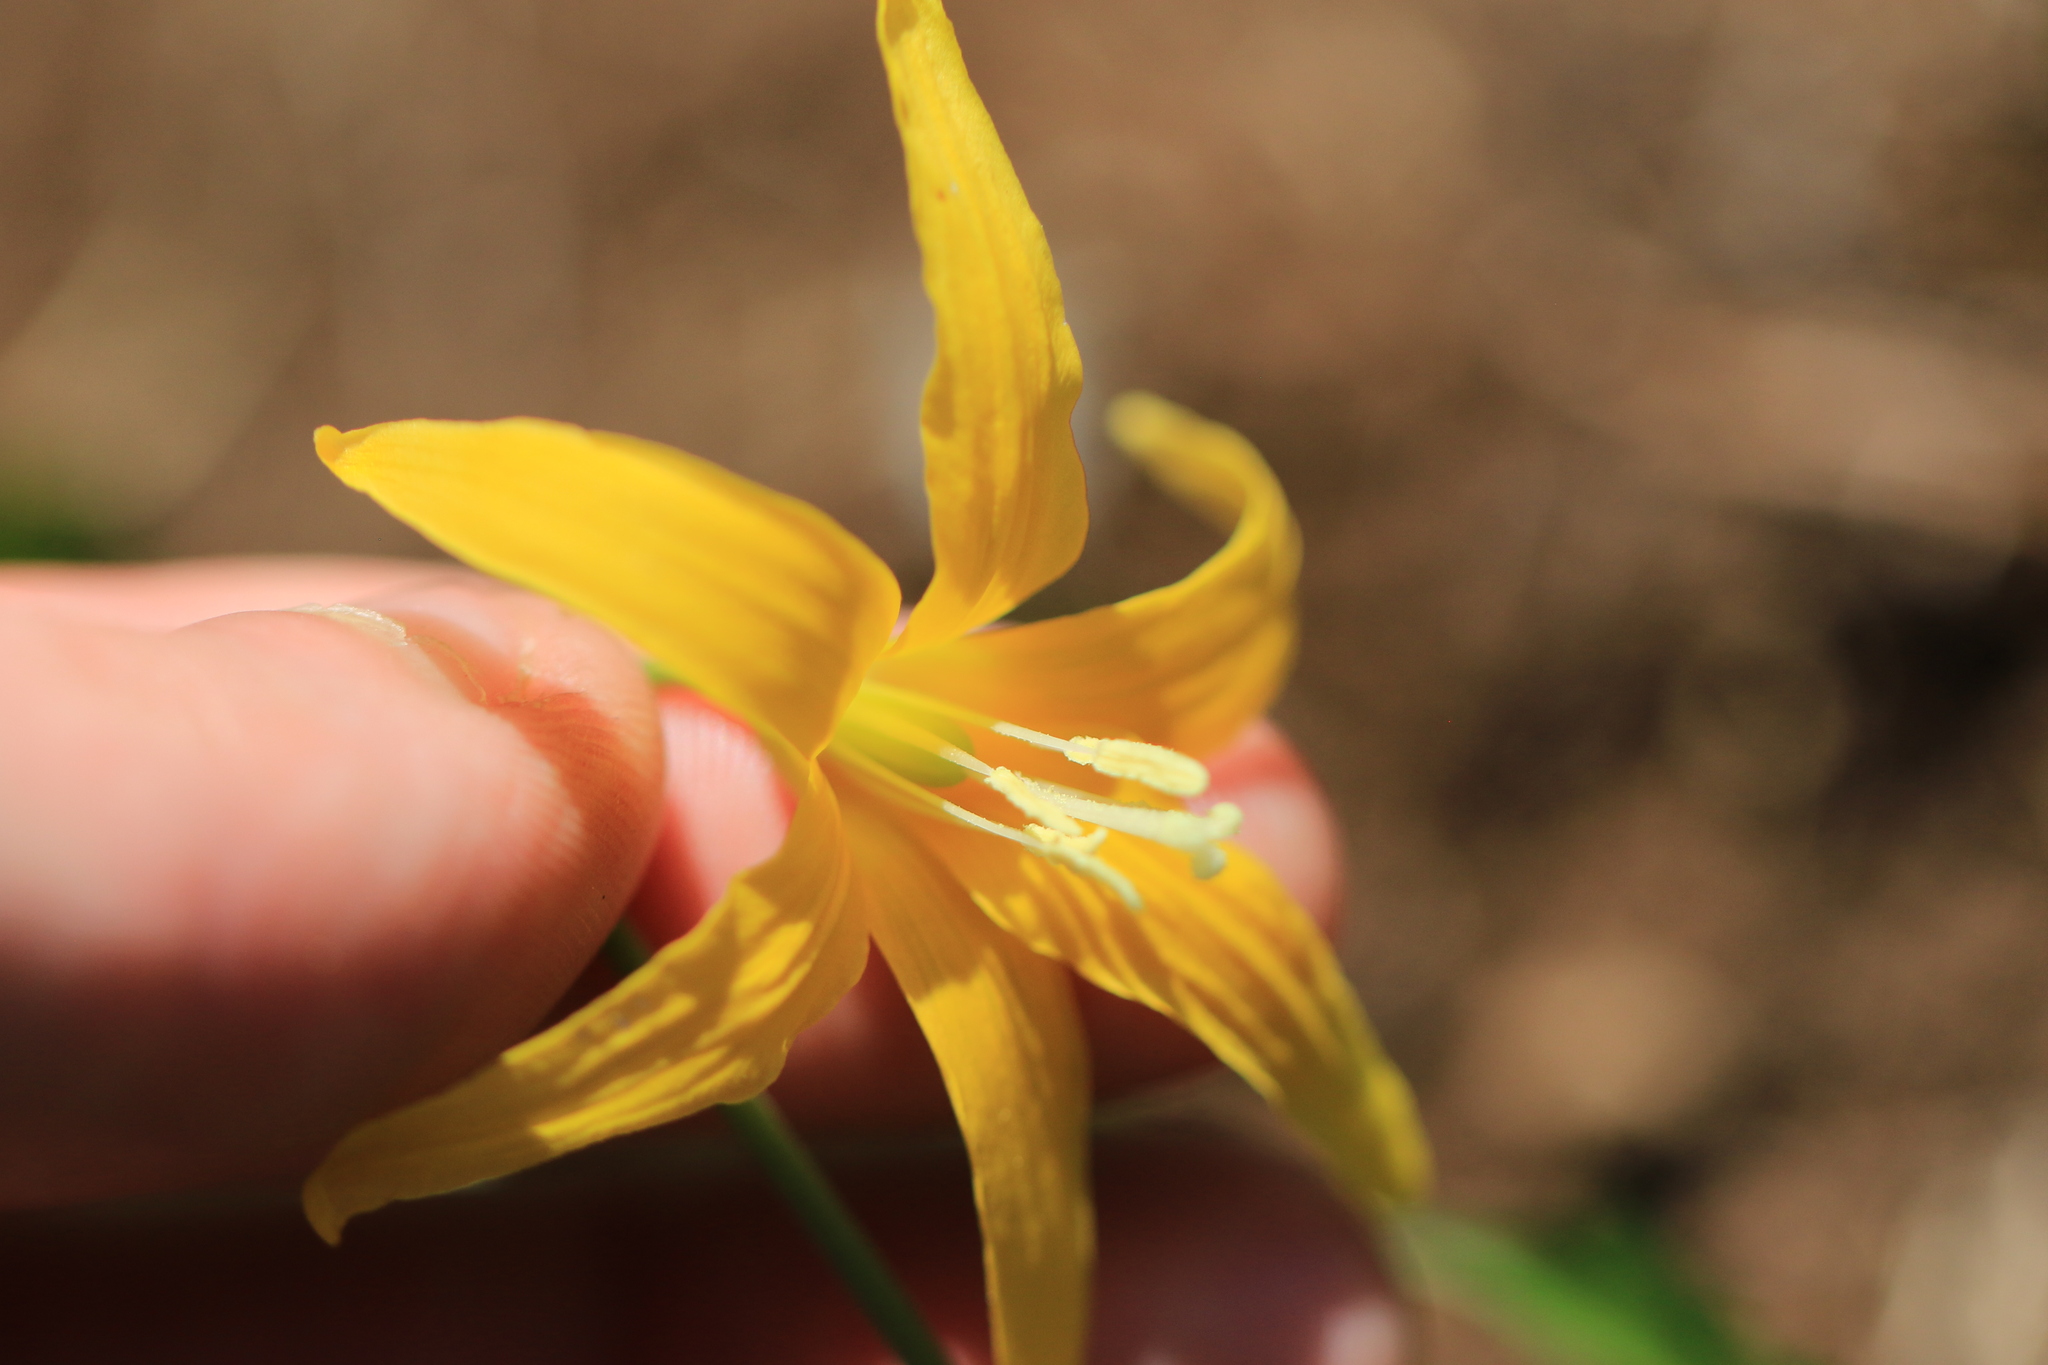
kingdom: Plantae
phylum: Tracheophyta
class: Liliopsida
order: Liliales
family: Liliaceae
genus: Erythronium
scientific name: Erythronium grandiflorum
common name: Avalanche-lily
